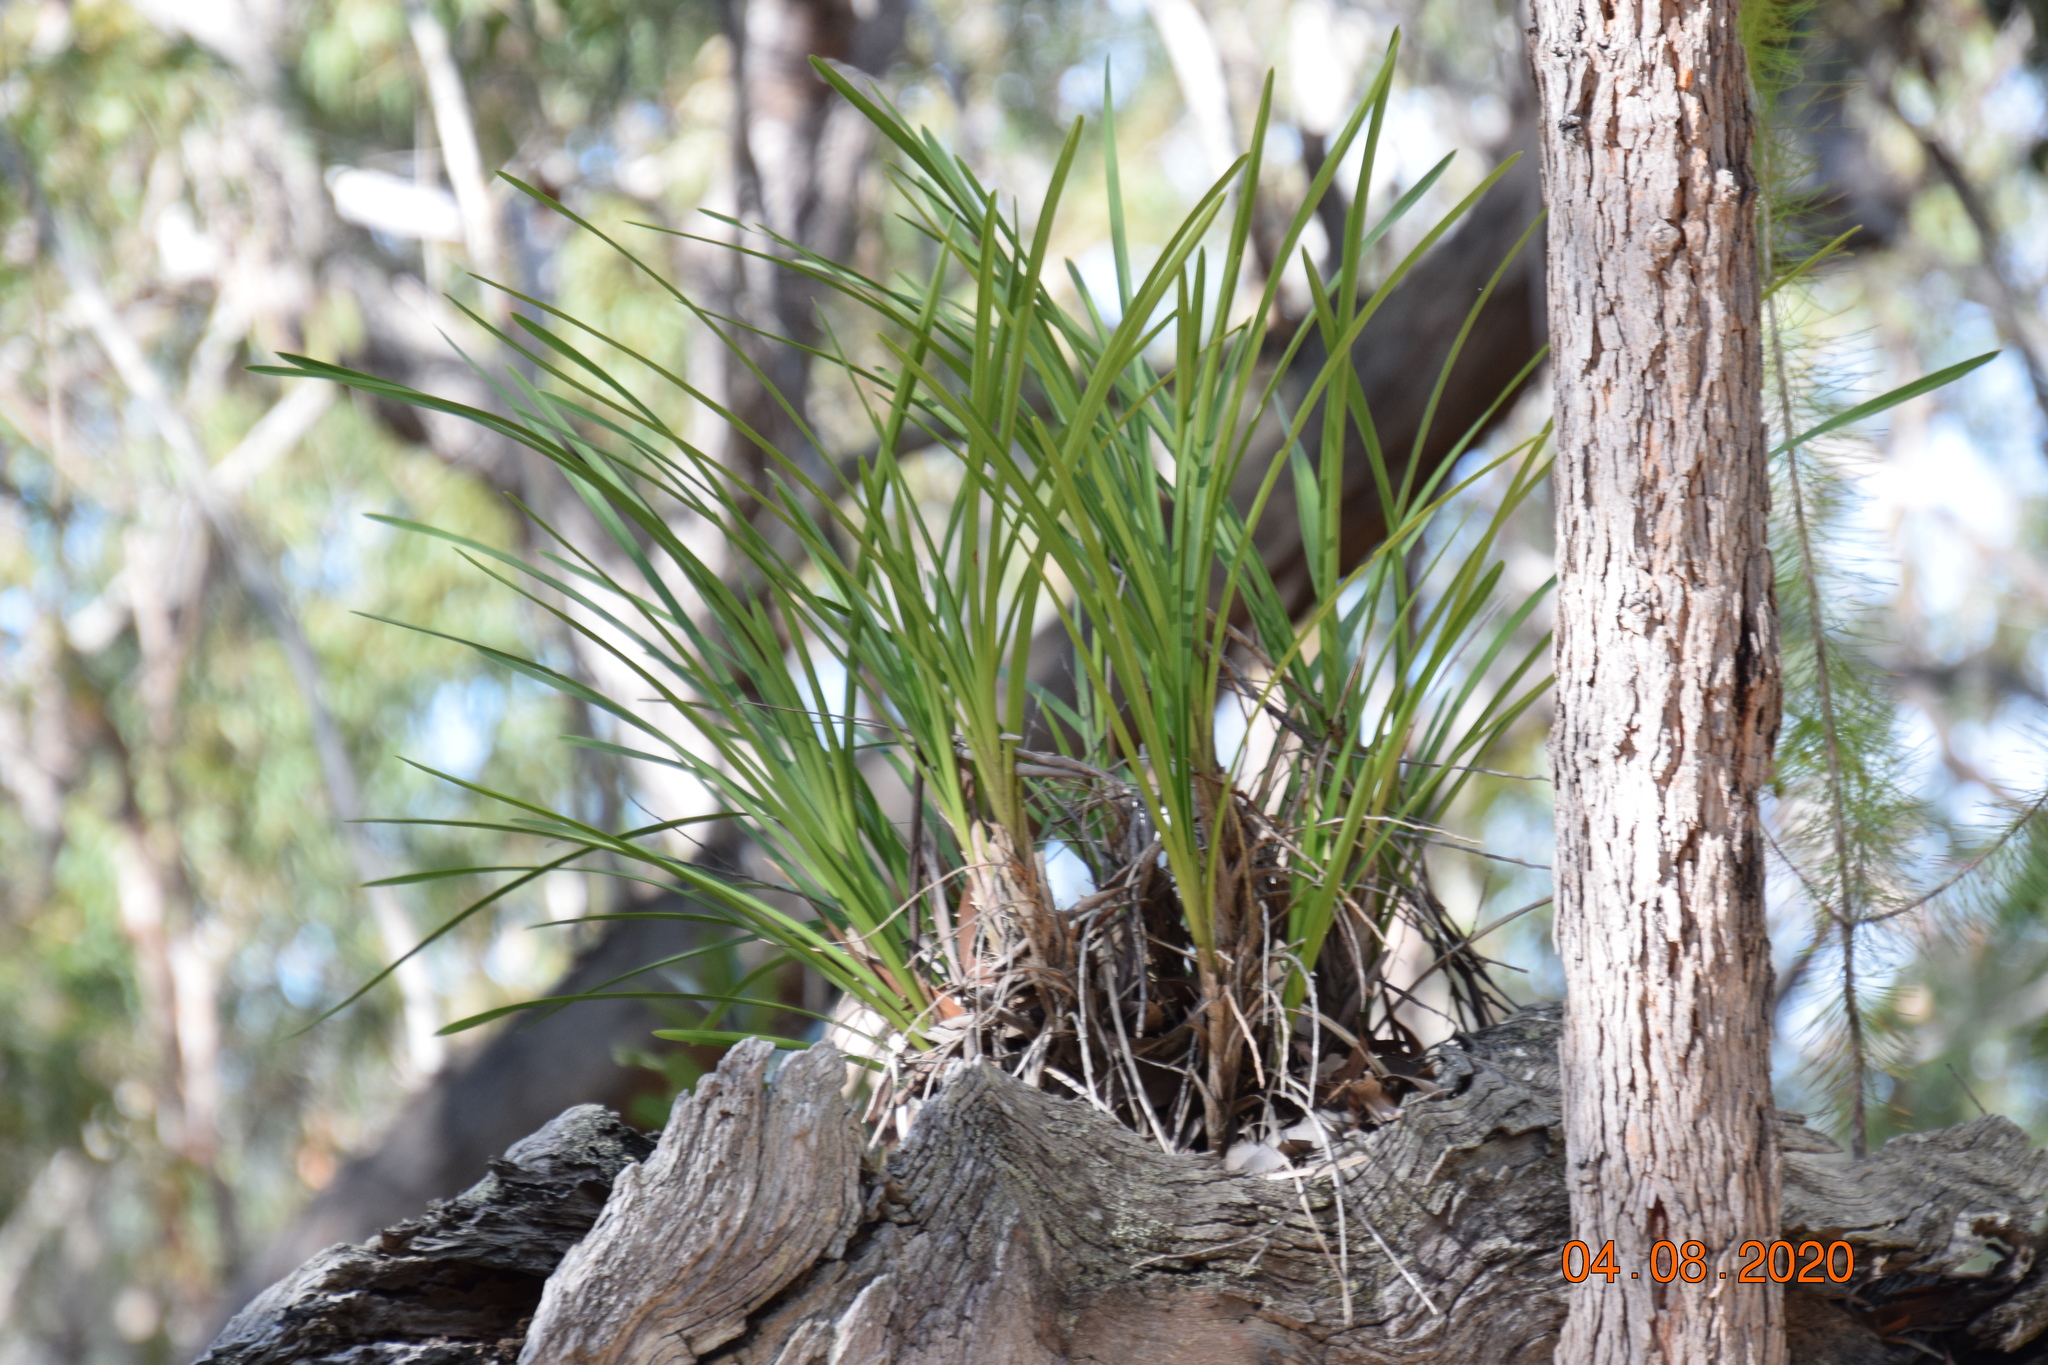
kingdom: Plantae
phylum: Tracheophyta
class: Liliopsida
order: Asparagales
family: Orchidaceae
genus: Cymbidium
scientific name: Cymbidium suave
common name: Snake orchid
